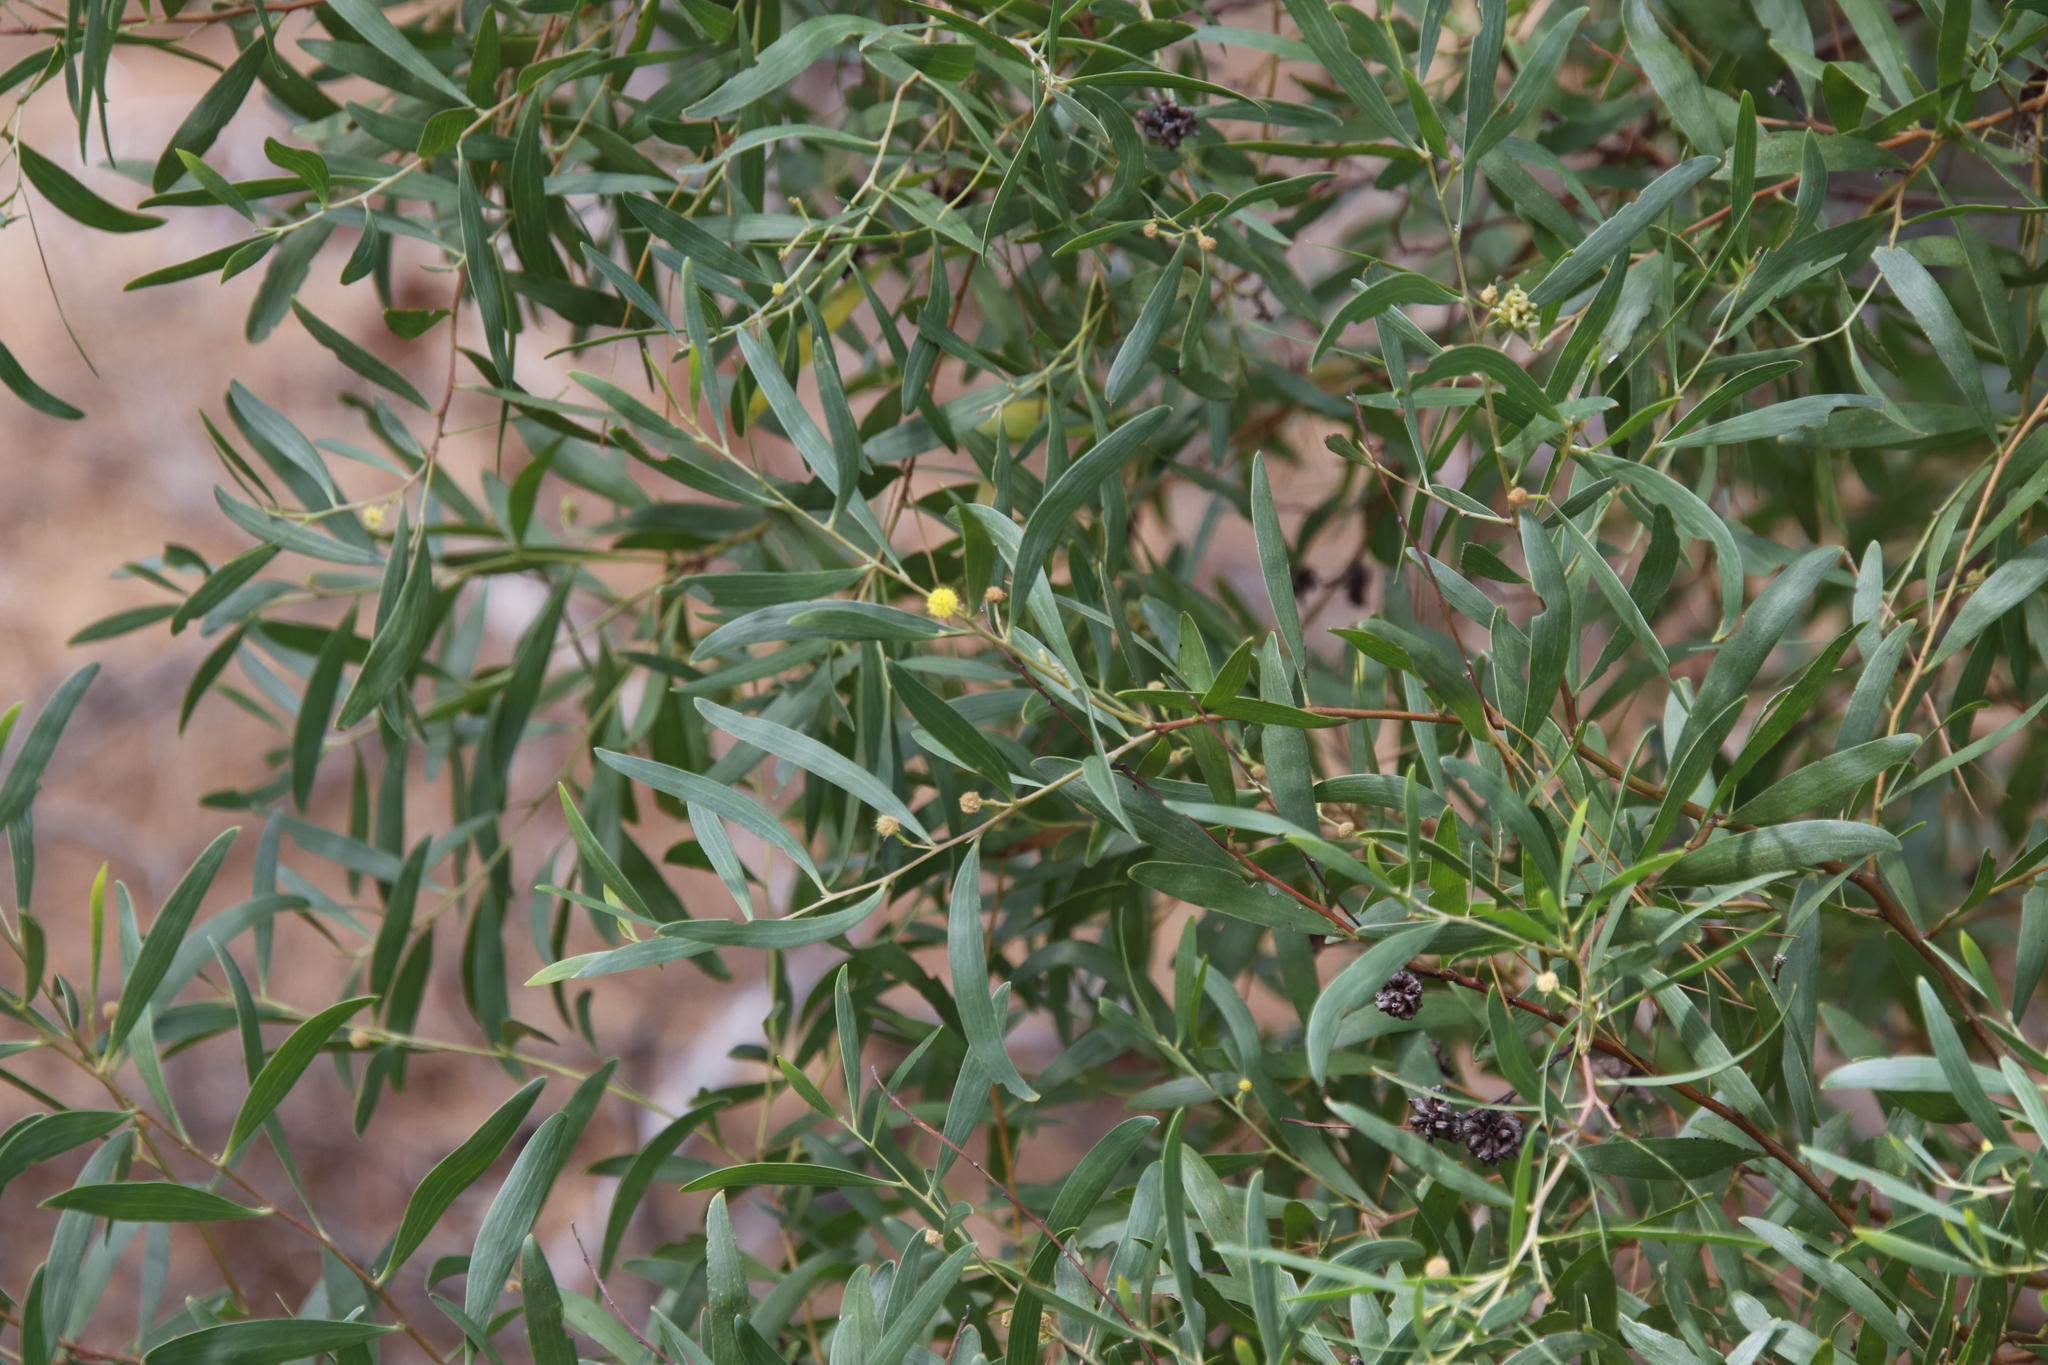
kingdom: Plantae
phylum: Tracheophyta
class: Magnoliopsida
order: Fabales
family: Fabaceae
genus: Acacia
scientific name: Acacia cyclops
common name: Coastal wattle
